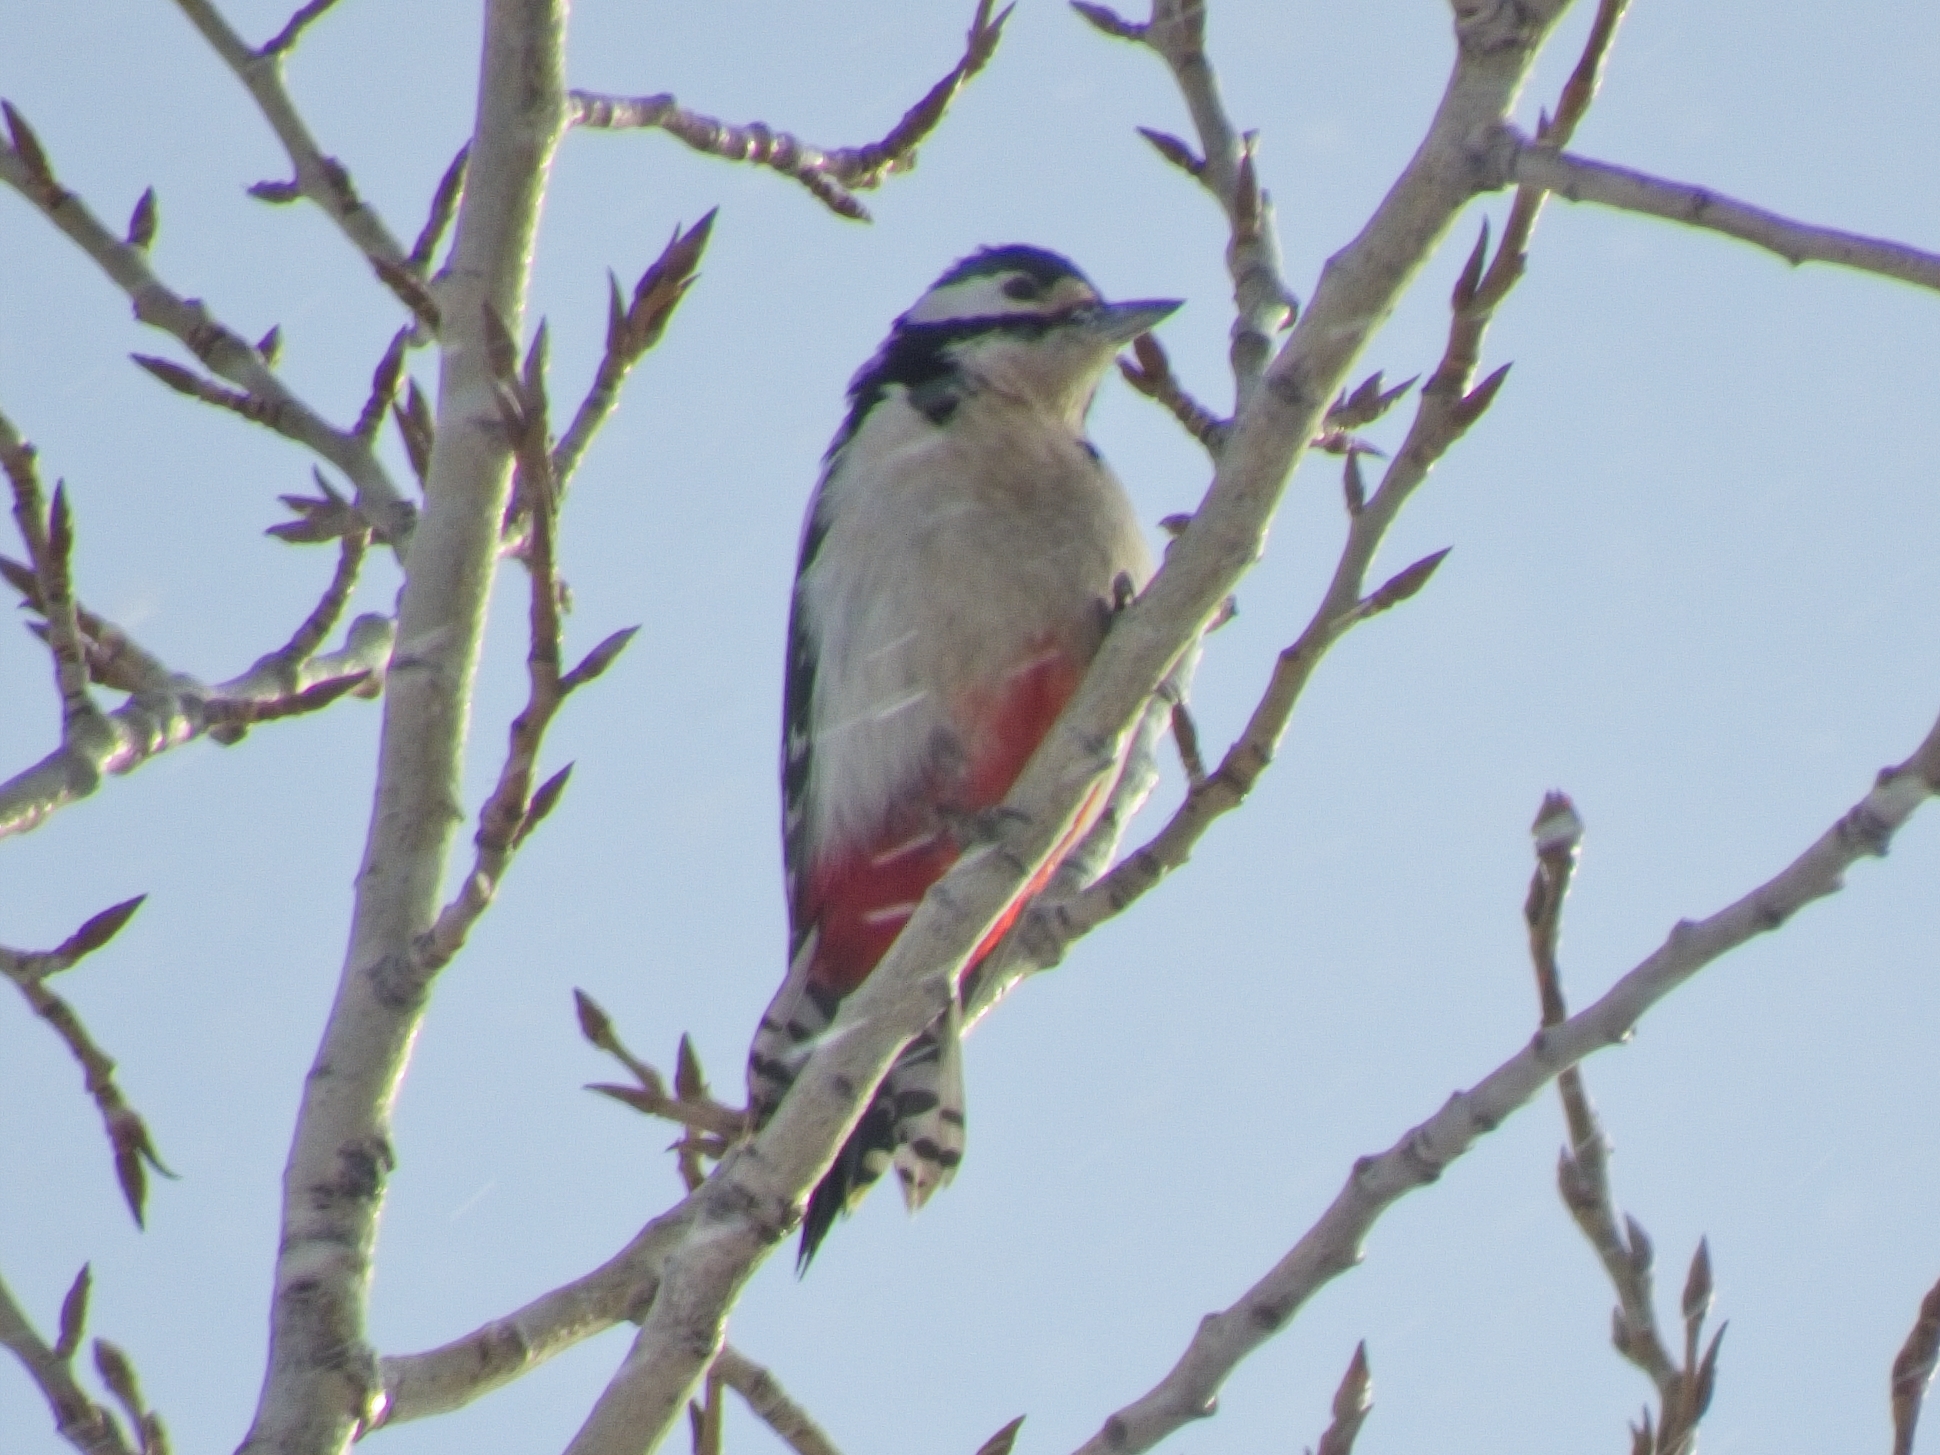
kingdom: Animalia
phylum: Chordata
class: Aves
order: Piciformes
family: Picidae
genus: Dendrocopos
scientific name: Dendrocopos major
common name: Great spotted woodpecker
